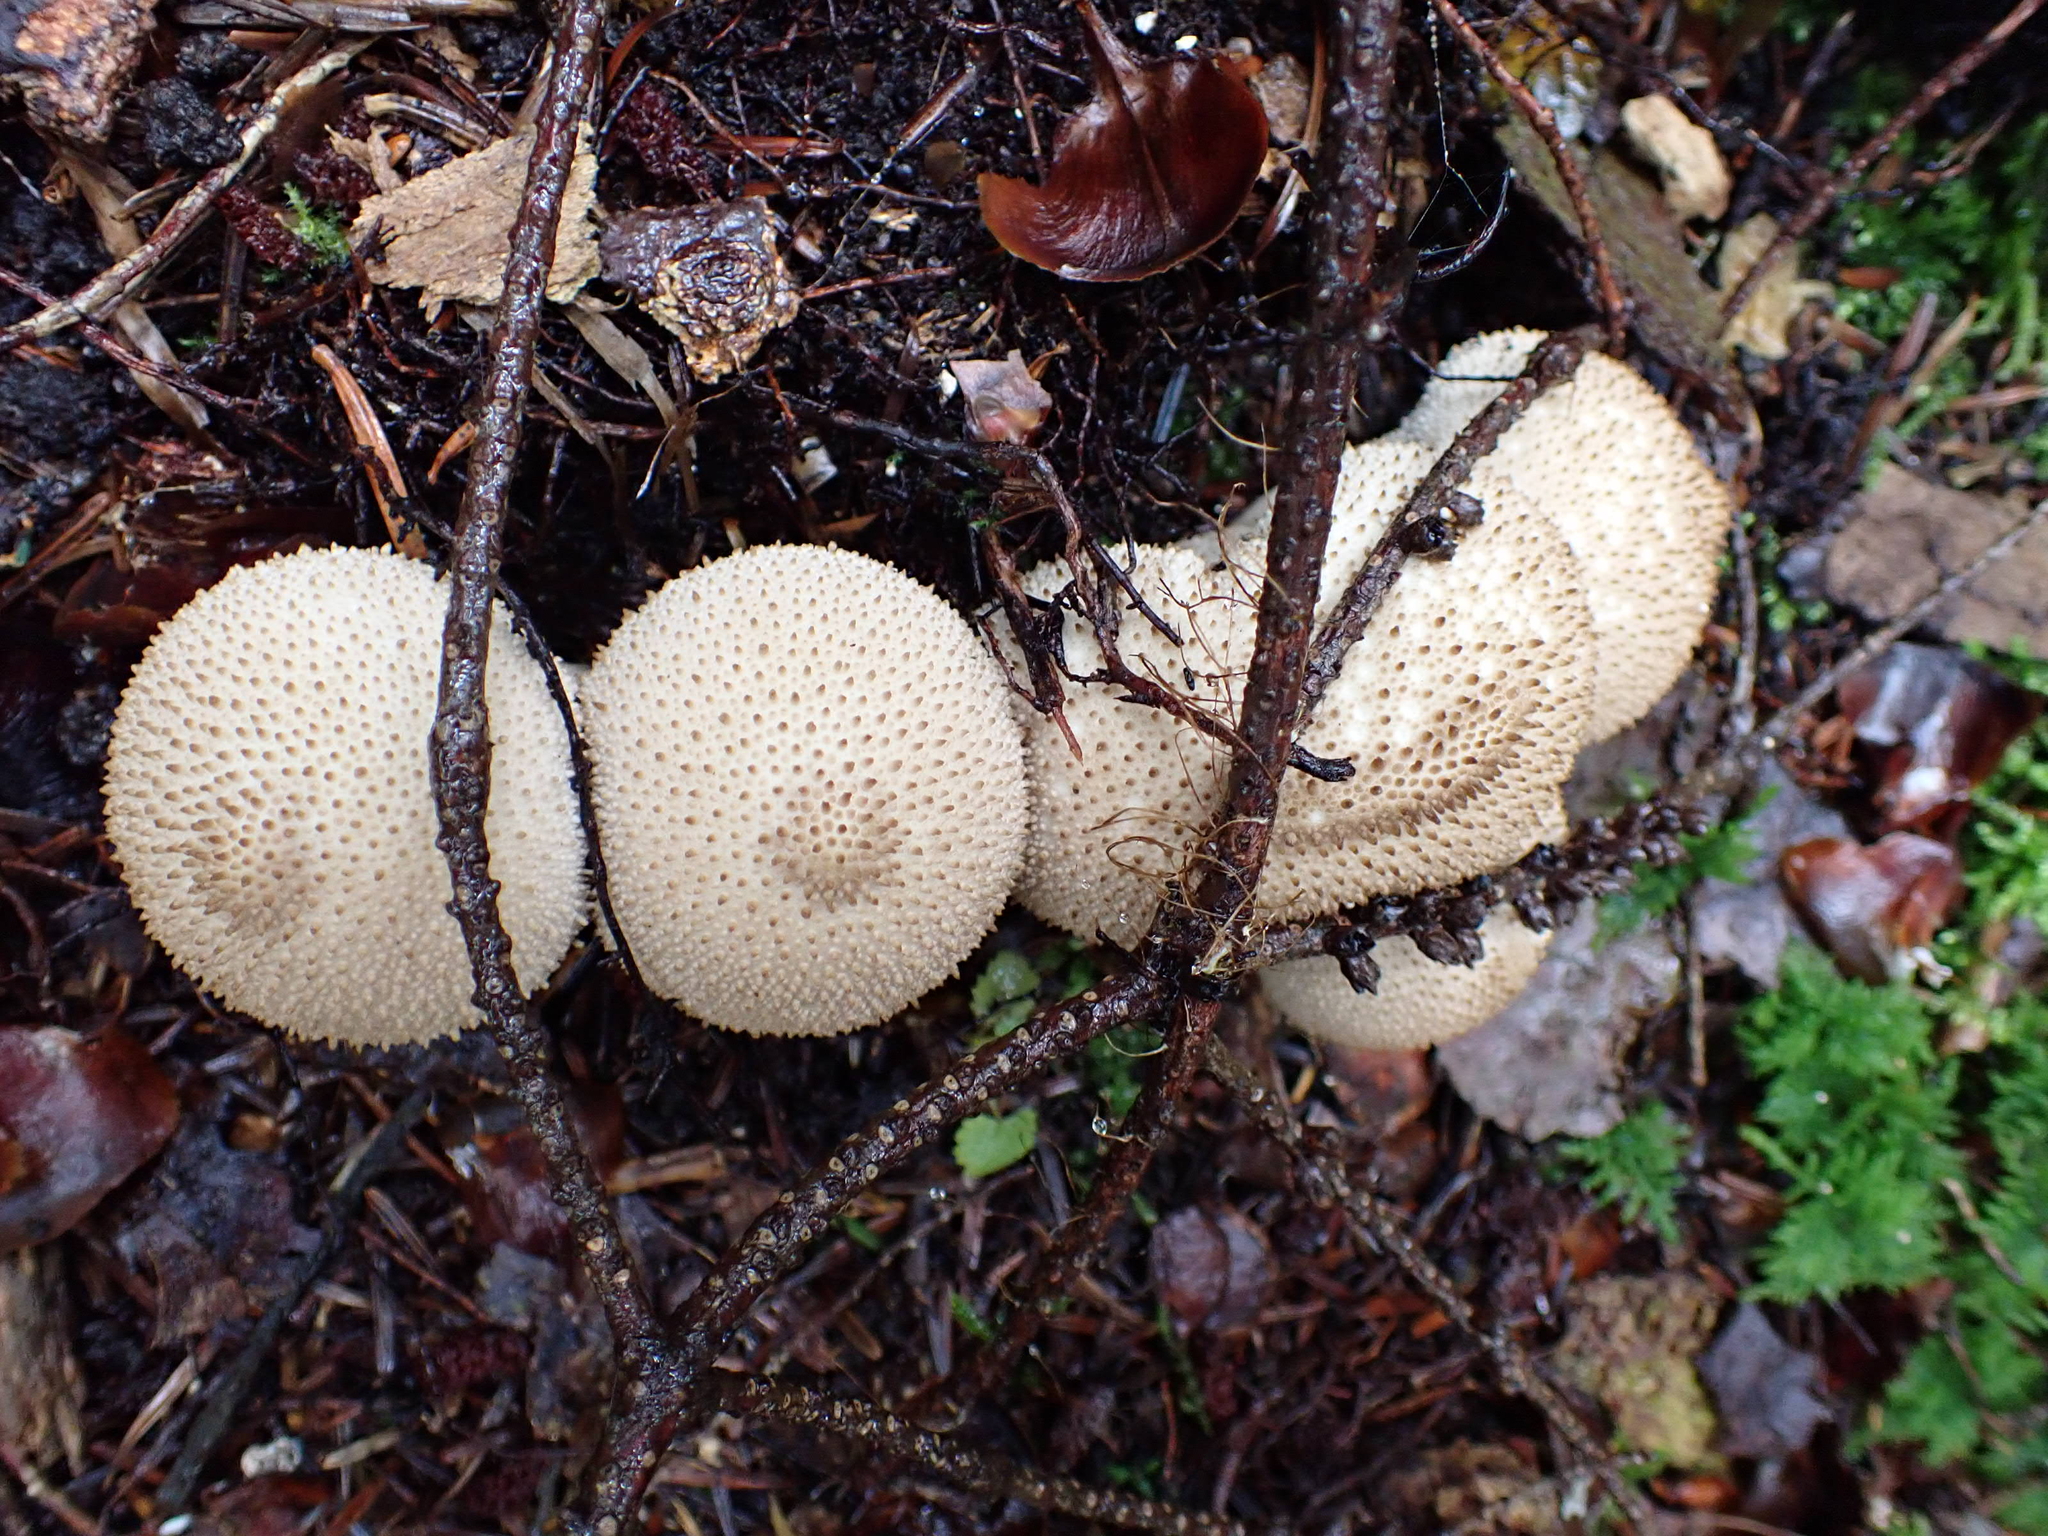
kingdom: Fungi
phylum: Basidiomycota
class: Agaricomycetes
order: Agaricales
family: Lycoperdaceae
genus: Lycoperdon
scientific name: Lycoperdon perlatum
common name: Common puffball
